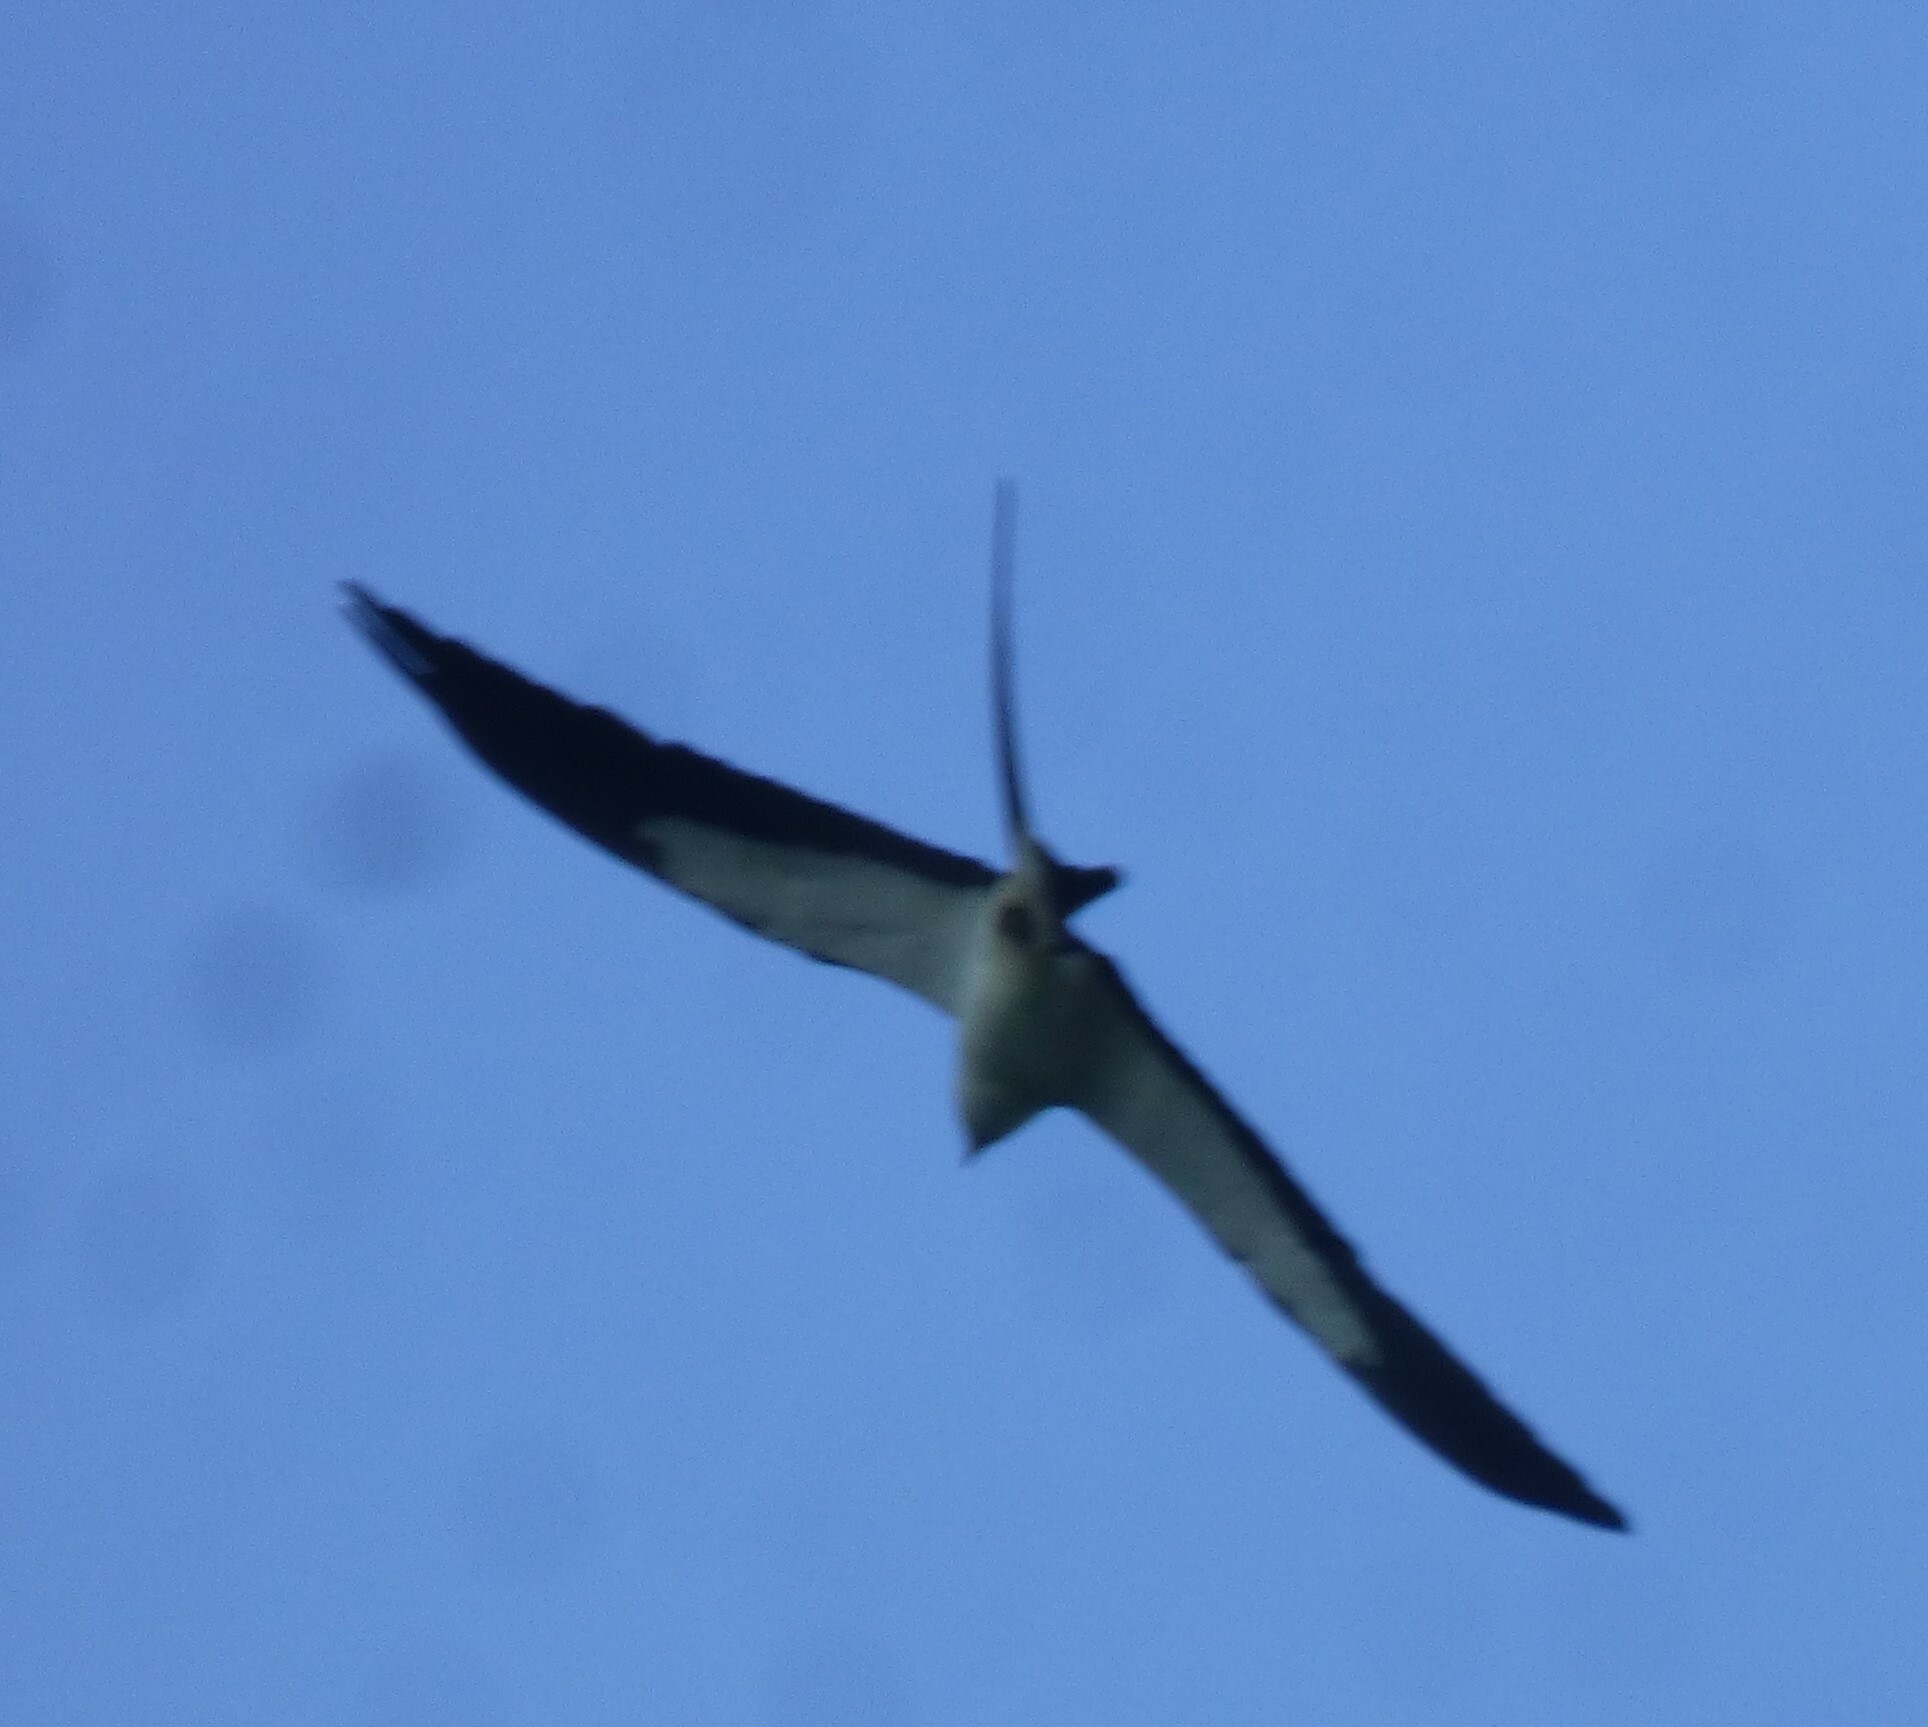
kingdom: Animalia
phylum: Chordata
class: Aves
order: Accipitriformes
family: Accipitridae
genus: Elanoides
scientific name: Elanoides forficatus
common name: Swallow-tailed kite
